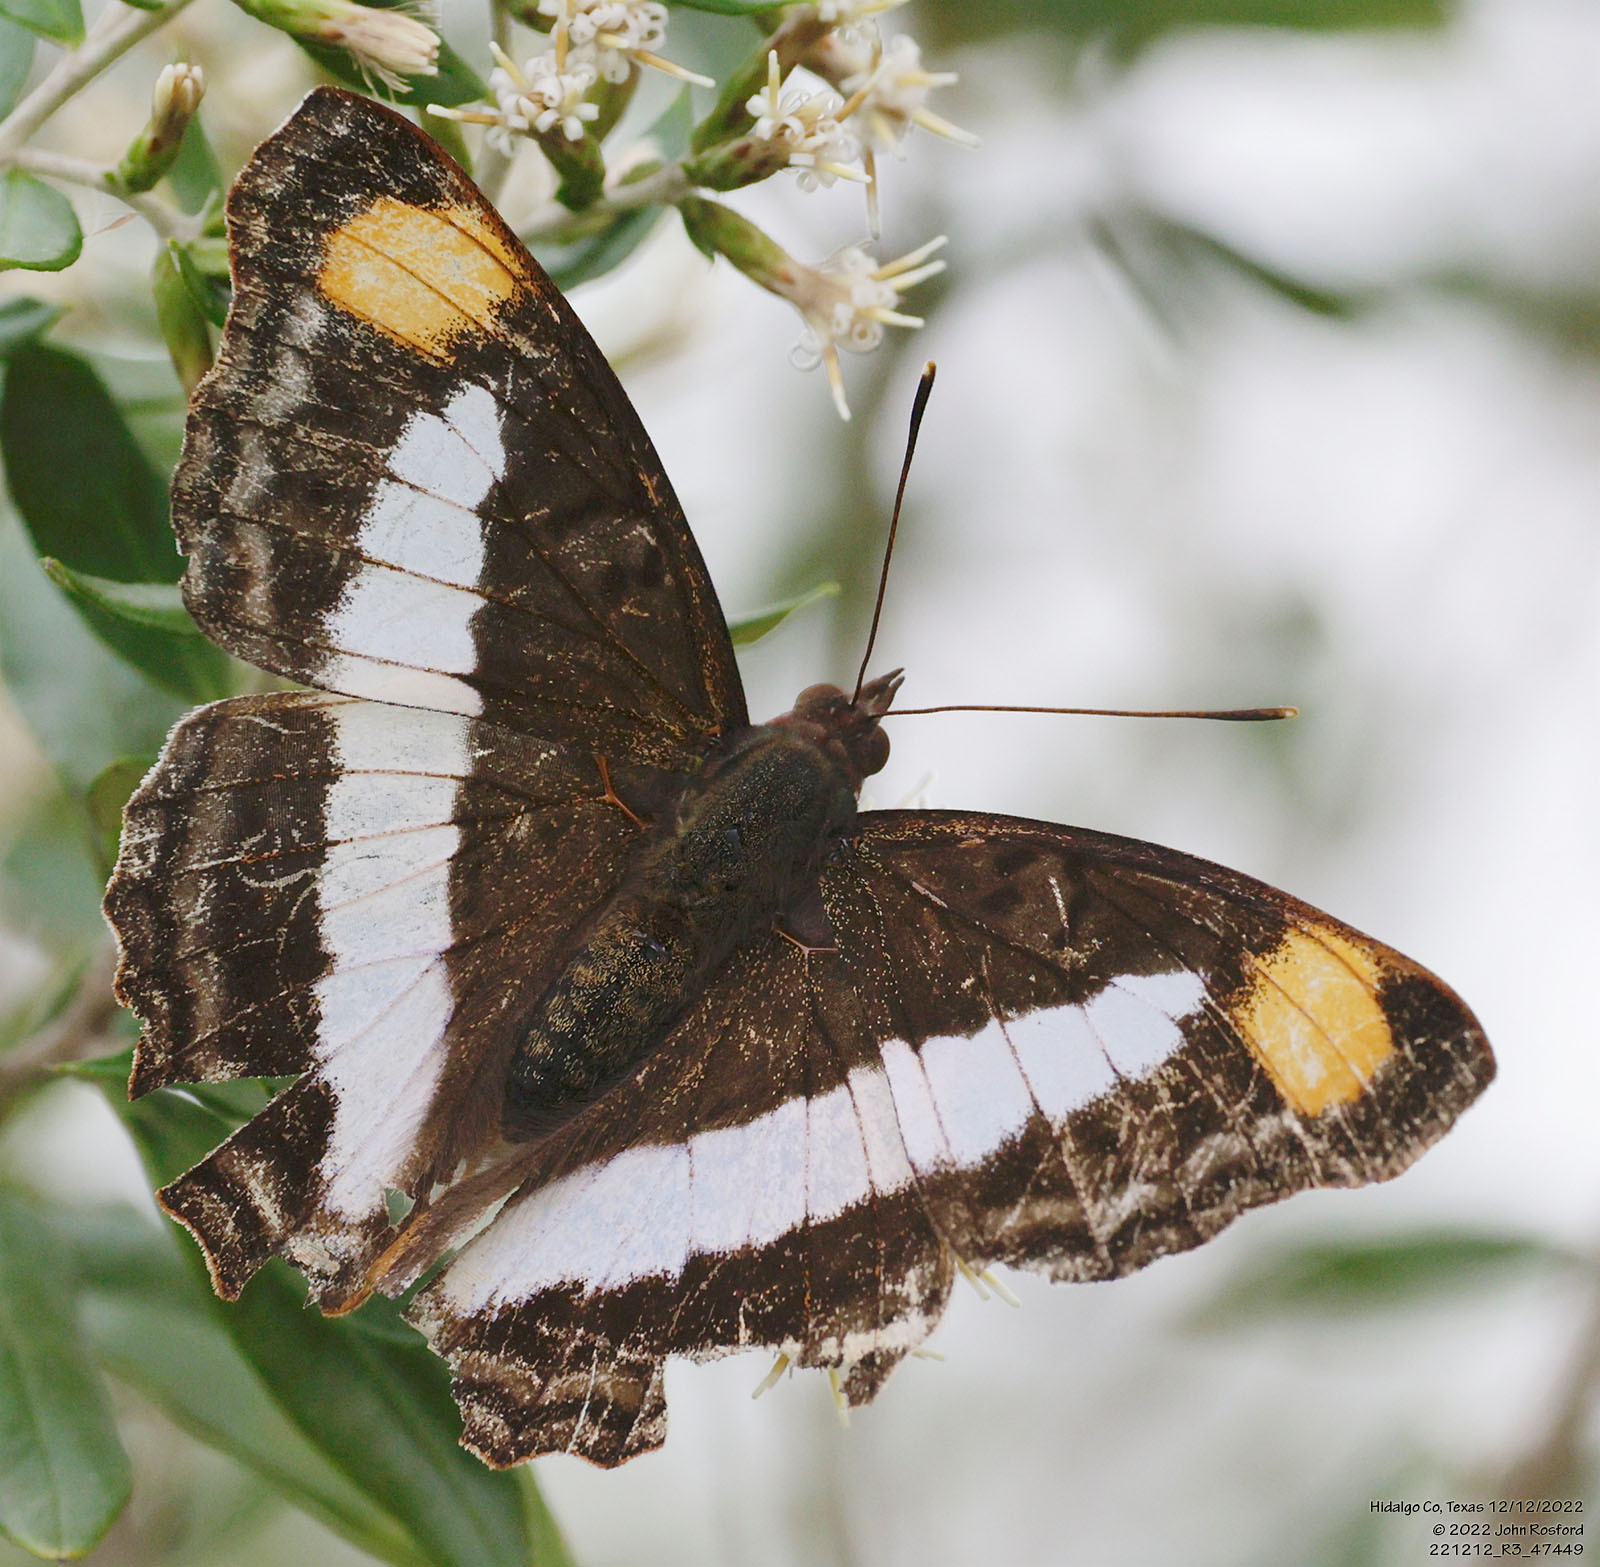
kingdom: Animalia
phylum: Arthropoda
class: Insecta
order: Lepidoptera
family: Nymphalidae
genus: Doxocopa
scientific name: Doxocopa pavon
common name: Pavon emperor
